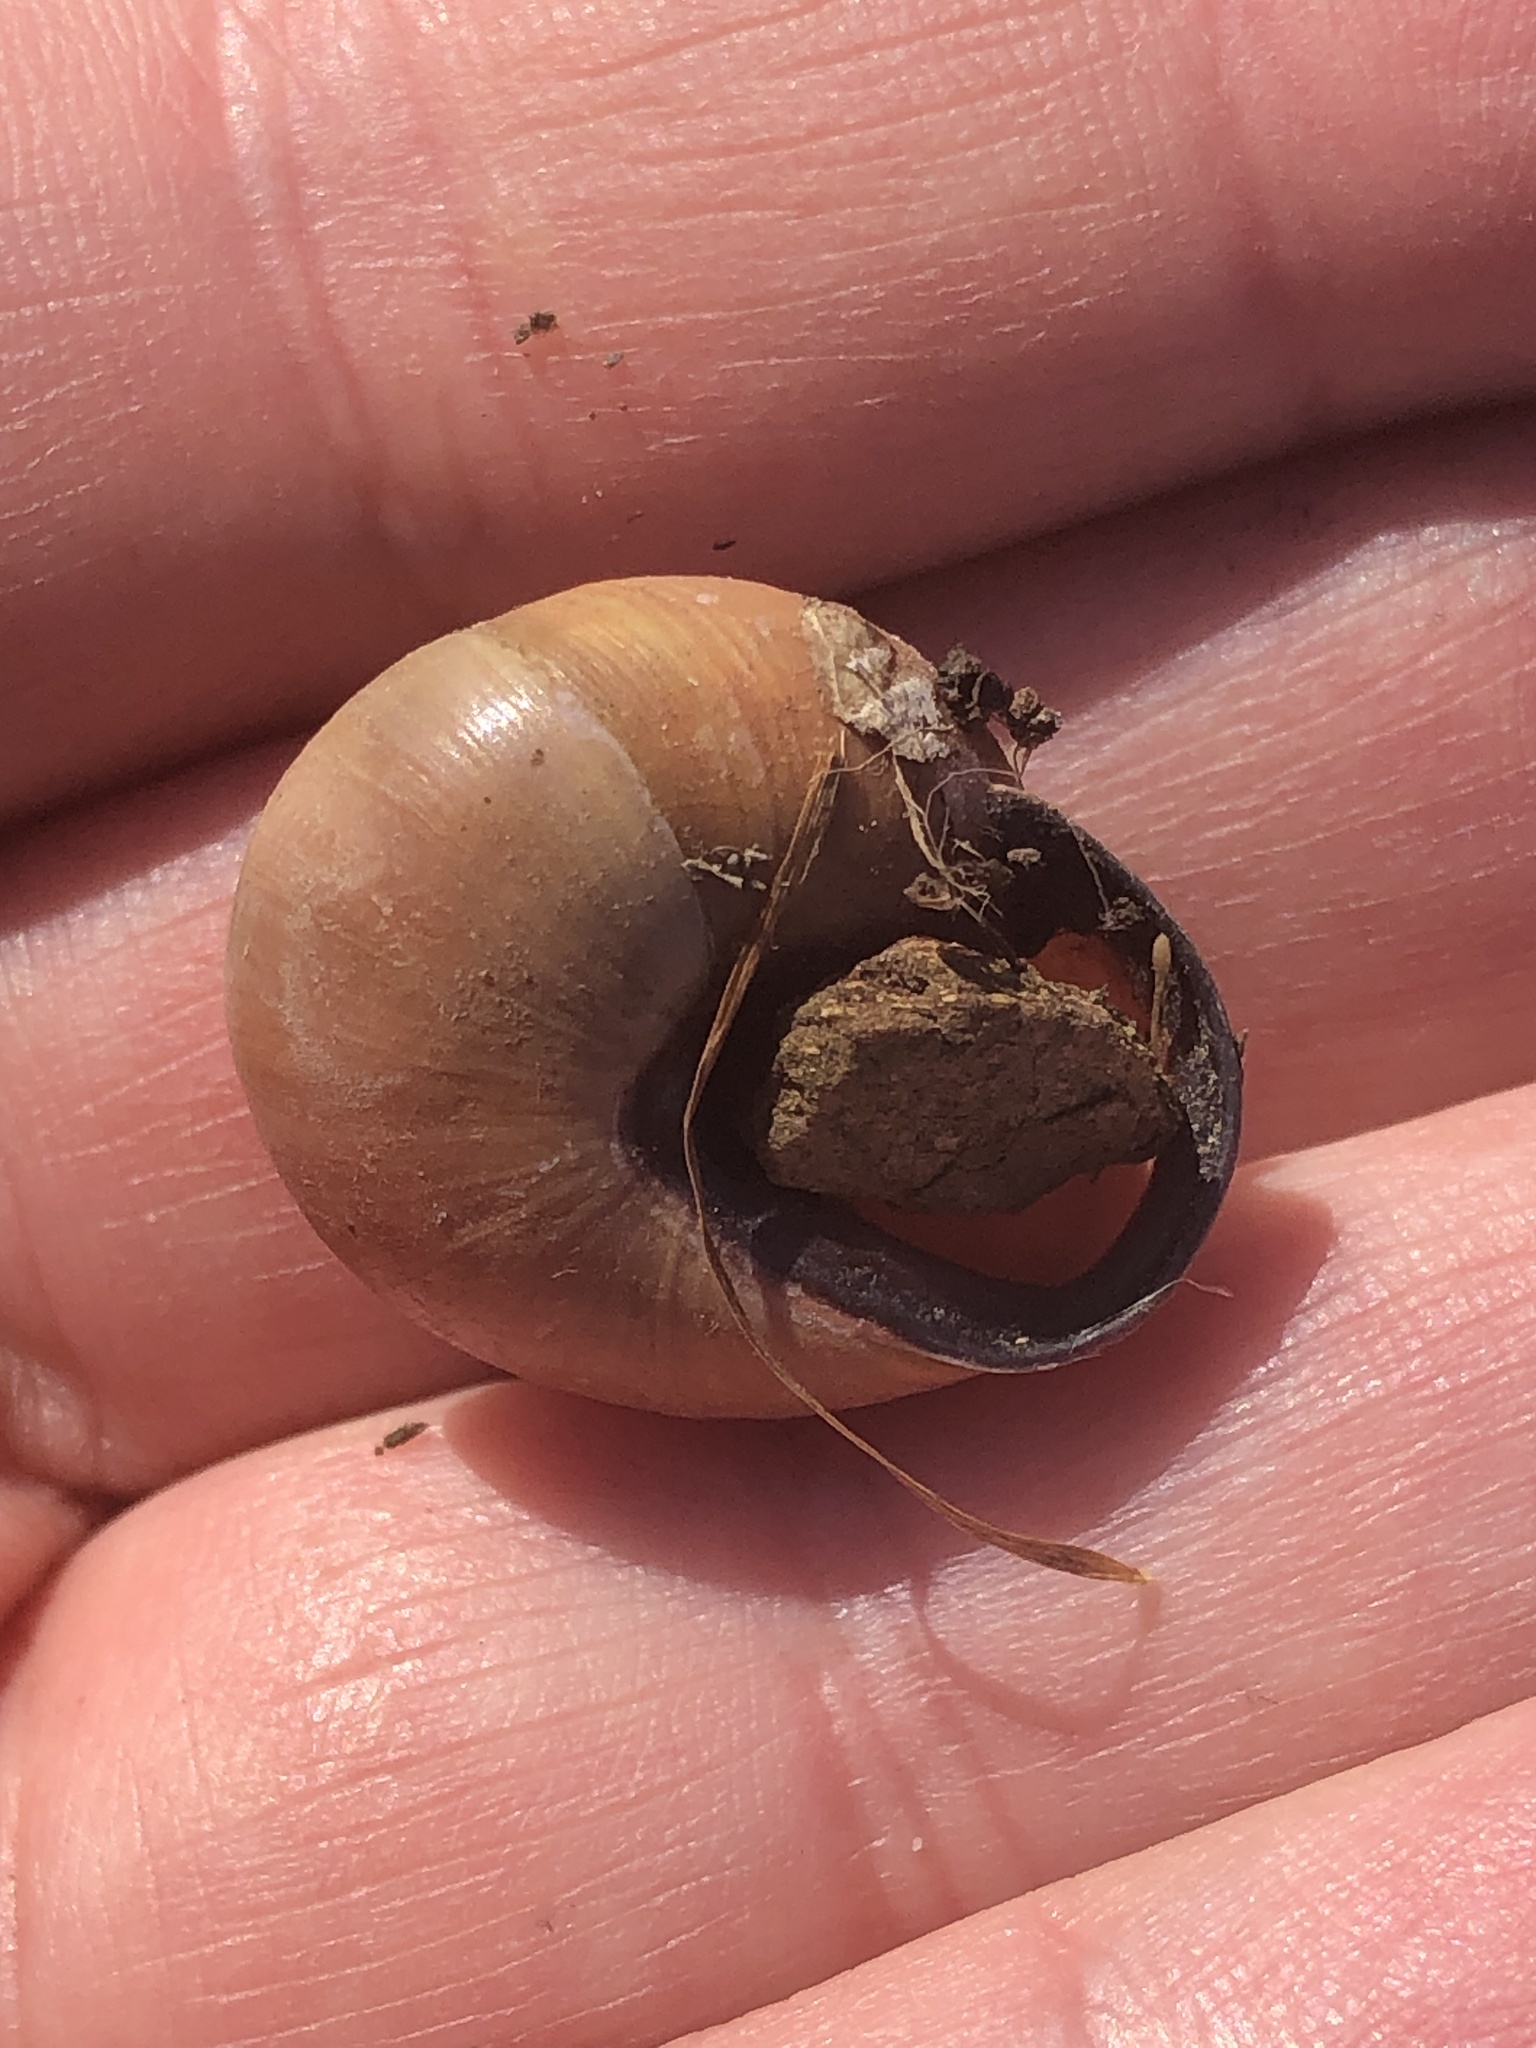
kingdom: Animalia
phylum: Mollusca
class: Gastropoda
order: Stylommatophora
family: Helicidae
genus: Cepaea
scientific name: Cepaea nemoralis
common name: Grovesnail
